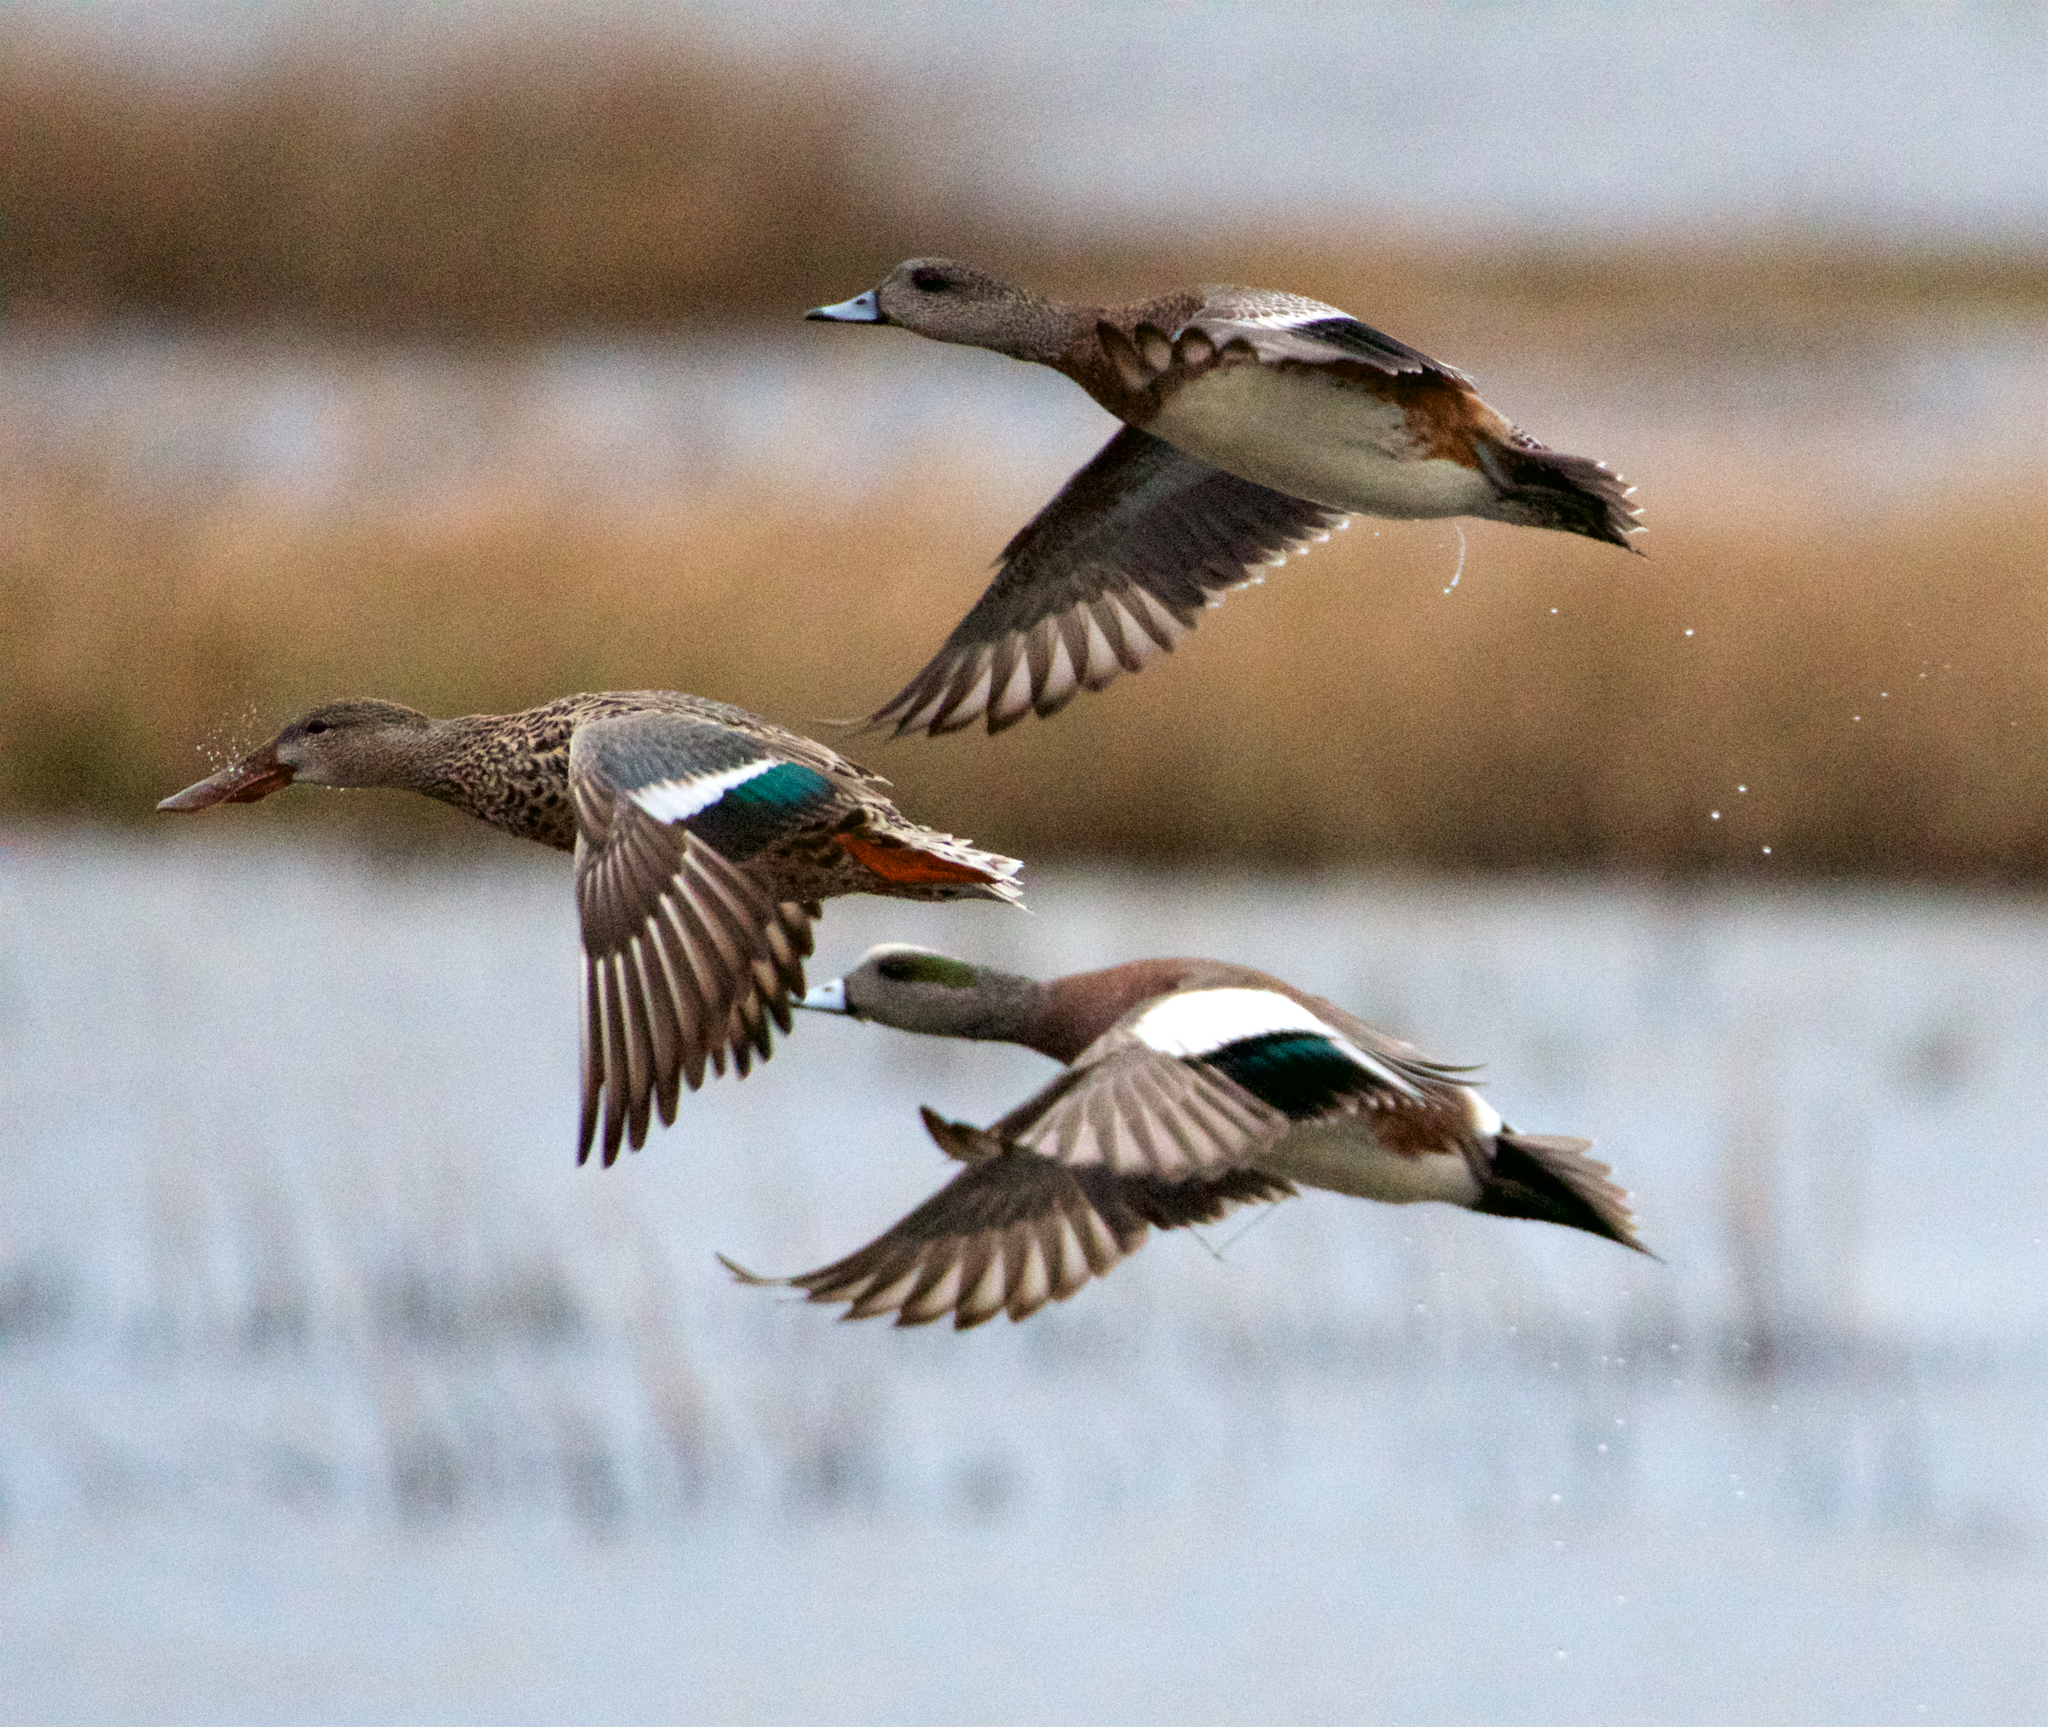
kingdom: Animalia
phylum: Chordata
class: Aves
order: Anseriformes
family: Anatidae
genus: Mareca
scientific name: Mareca americana
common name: American wigeon
